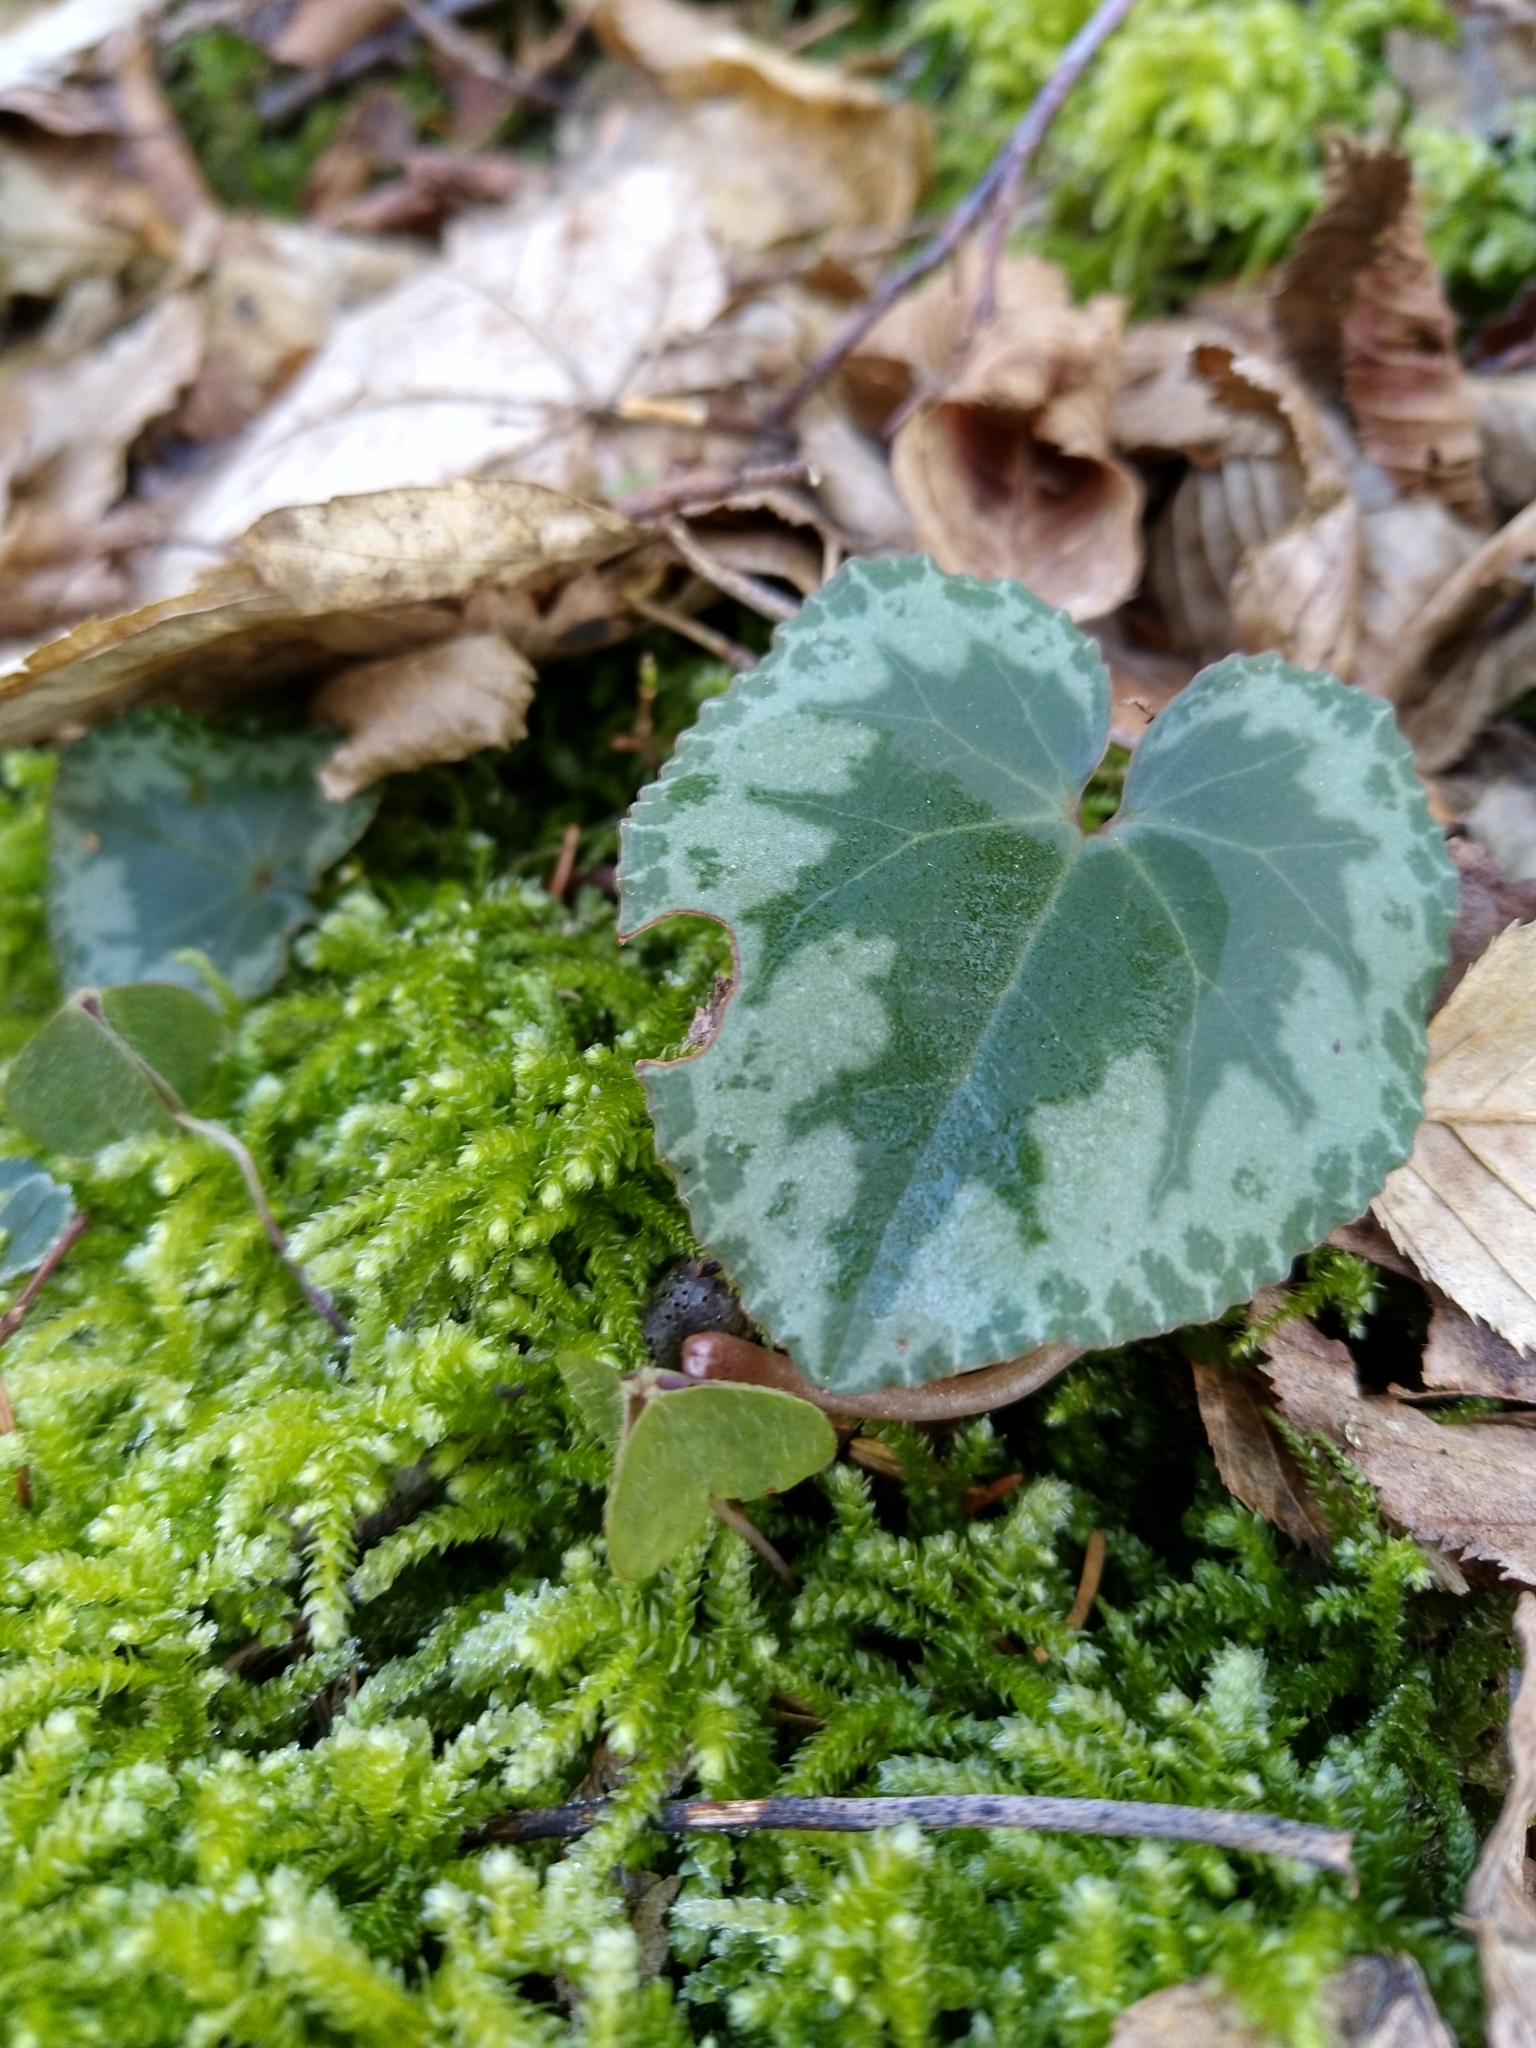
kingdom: Plantae
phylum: Tracheophyta
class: Magnoliopsida
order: Ericales
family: Primulaceae
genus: Cyclamen
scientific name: Cyclamen purpurascens
